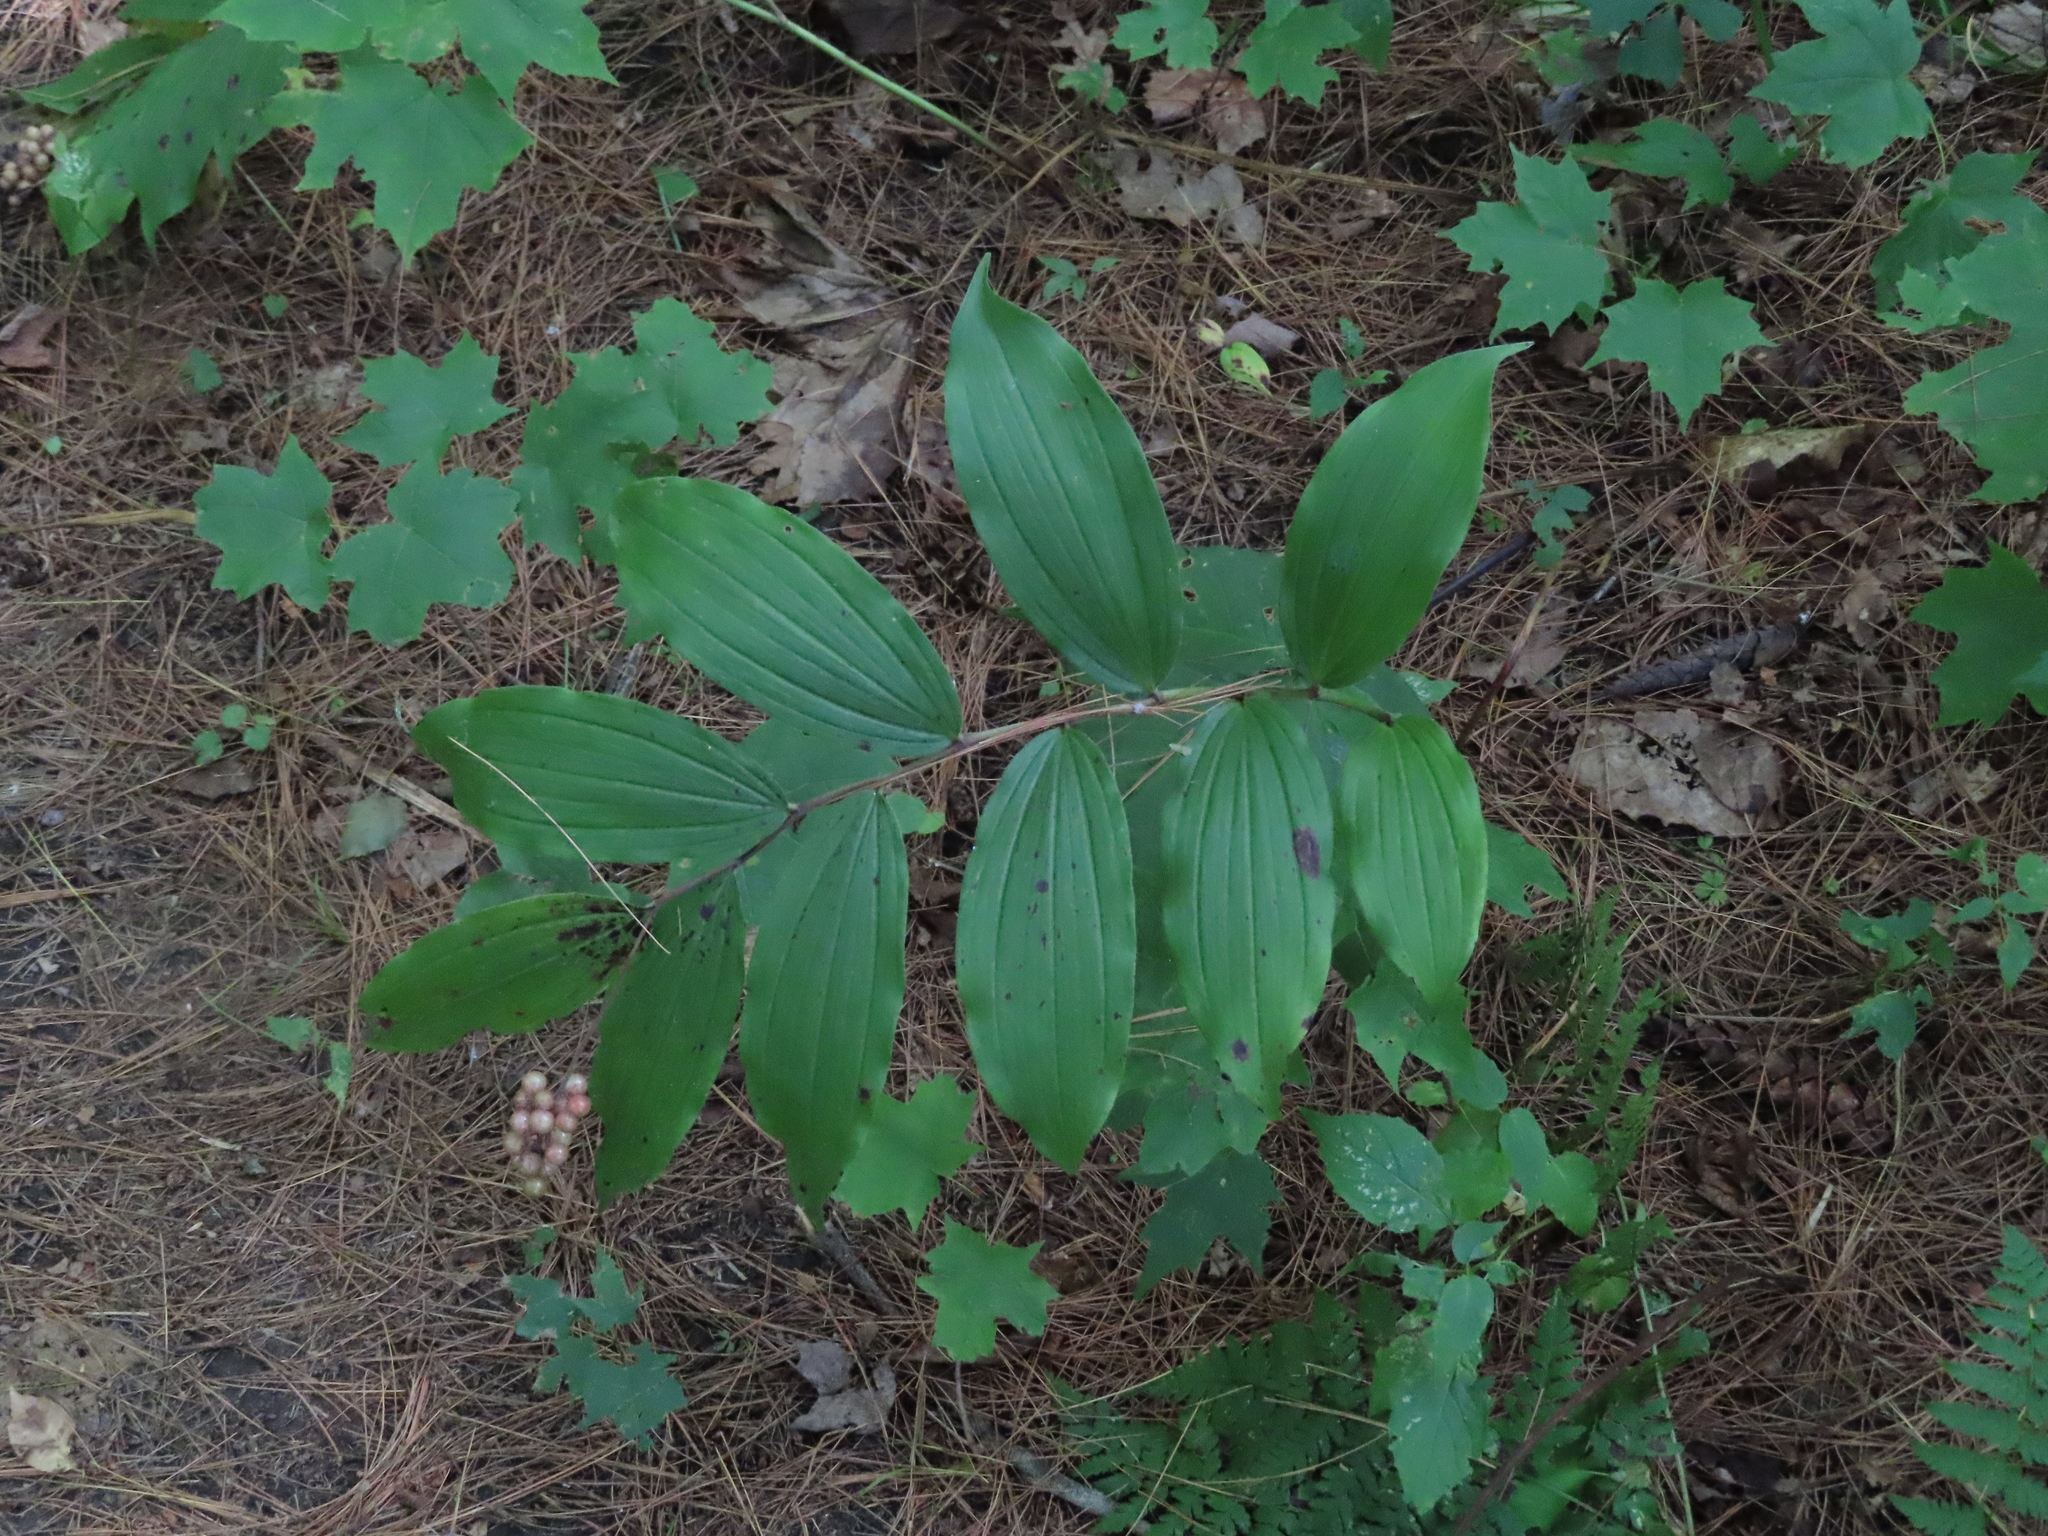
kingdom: Plantae
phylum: Tracheophyta
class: Liliopsida
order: Asparagales
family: Asparagaceae
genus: Maianthemum
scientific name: Maianthemum racemosum
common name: False spikenard
